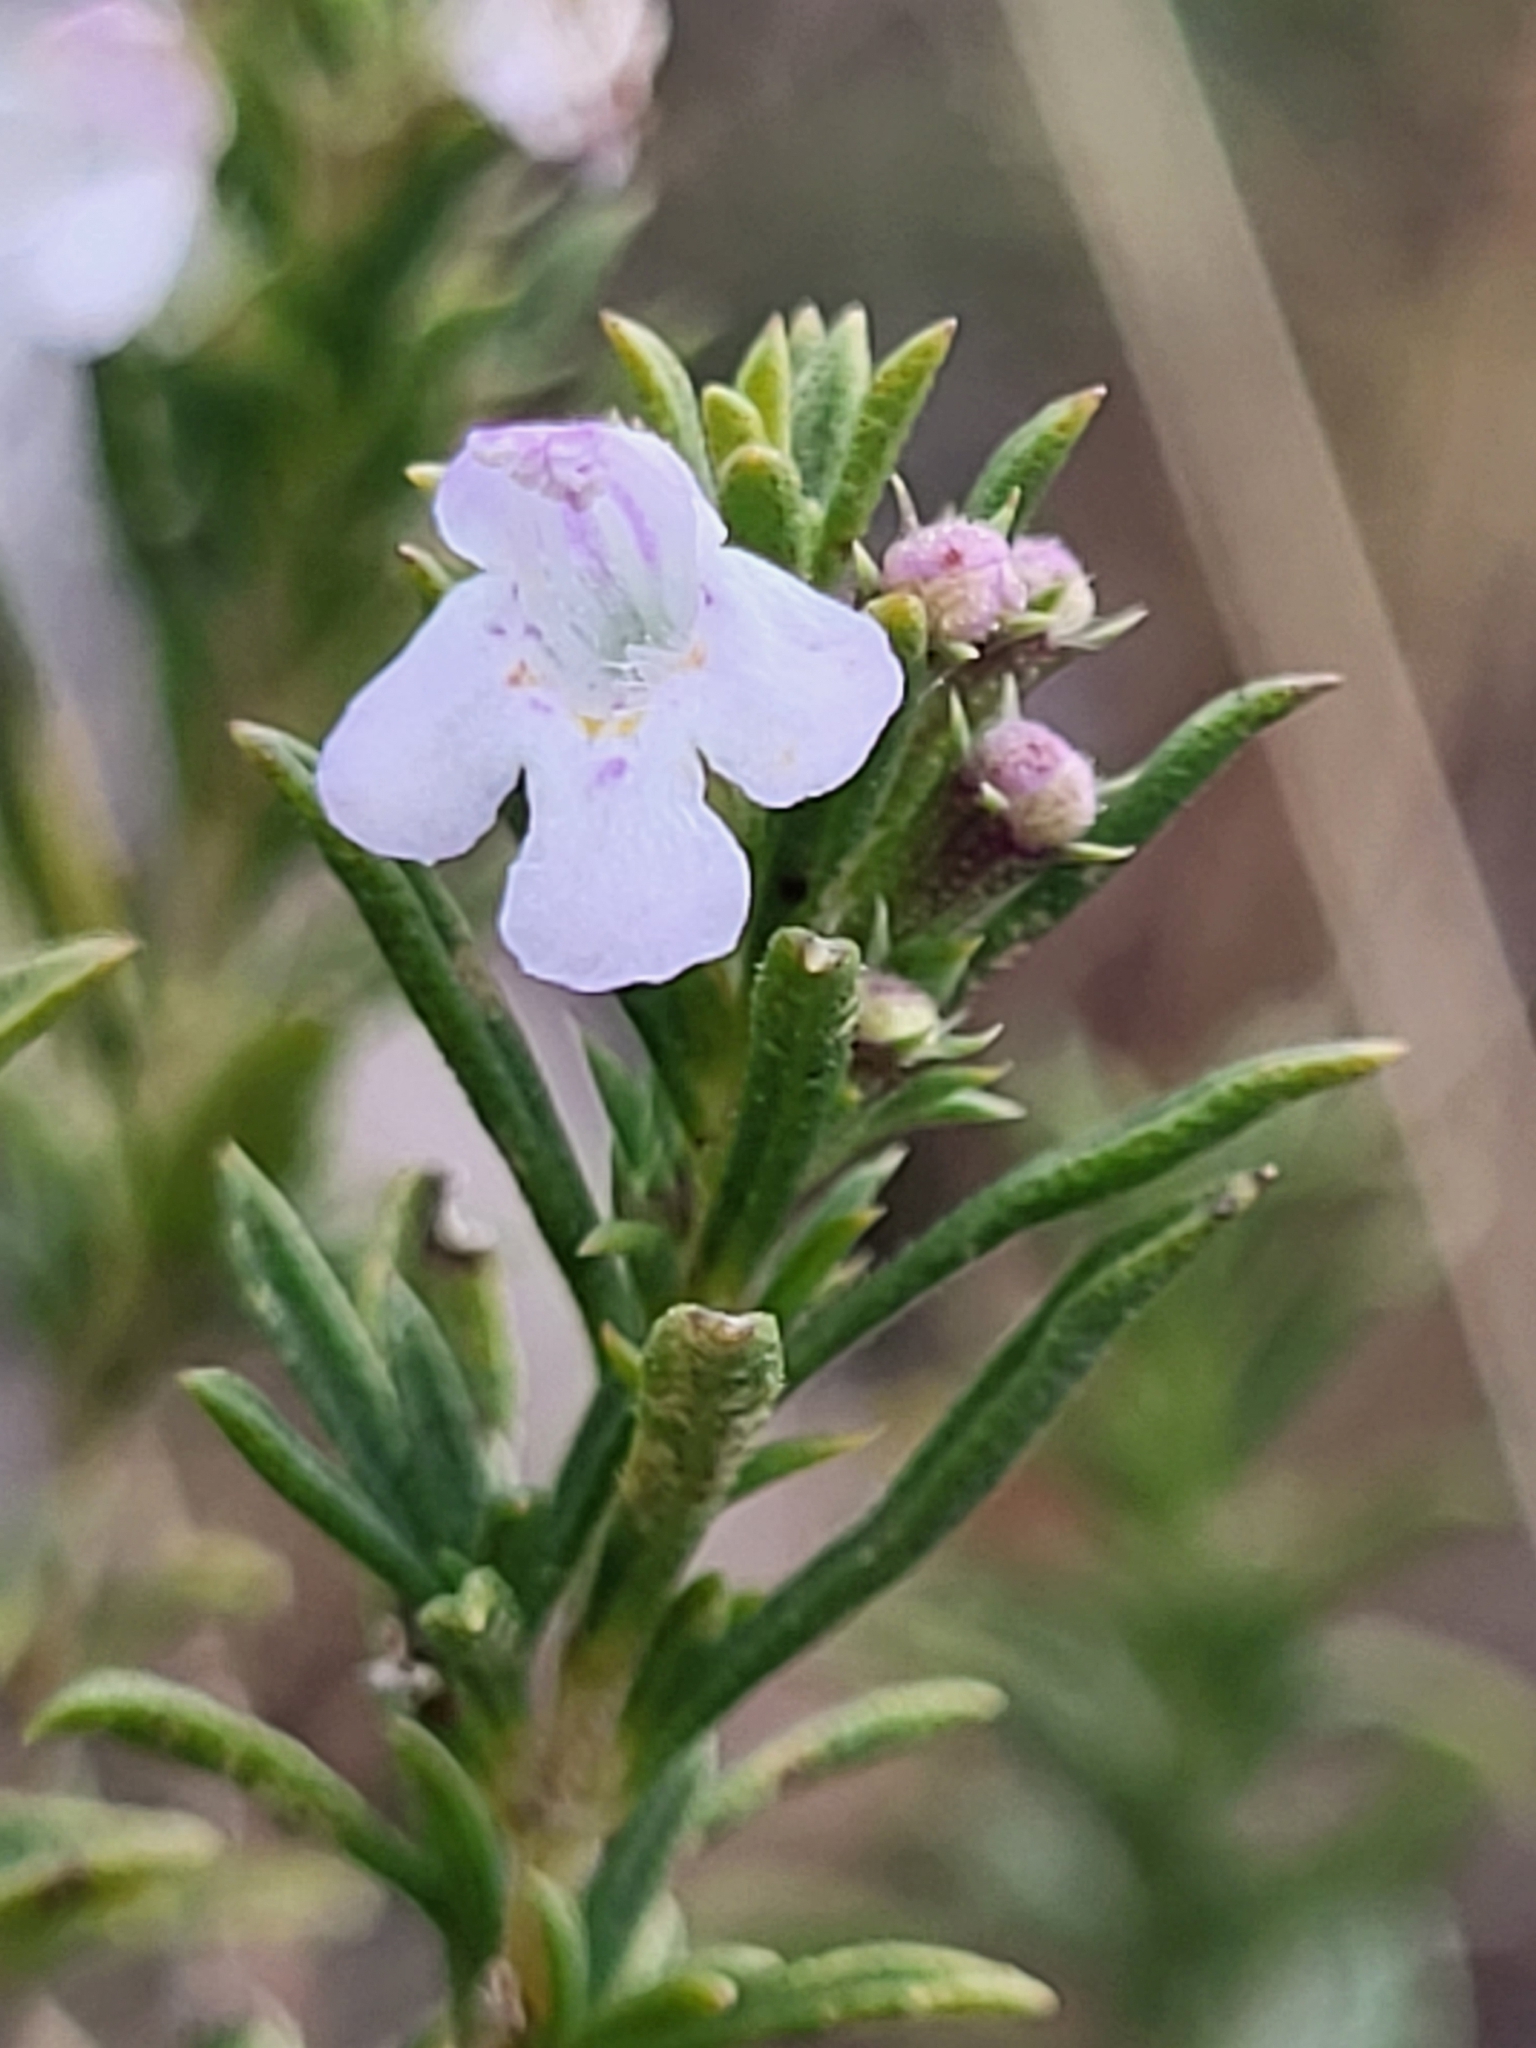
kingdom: Plantae
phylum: Tracheophyta
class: Magnoliopsida
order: Lamiales
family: Lamiaceae
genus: Satureja
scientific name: Satureja montana
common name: Winter savory
